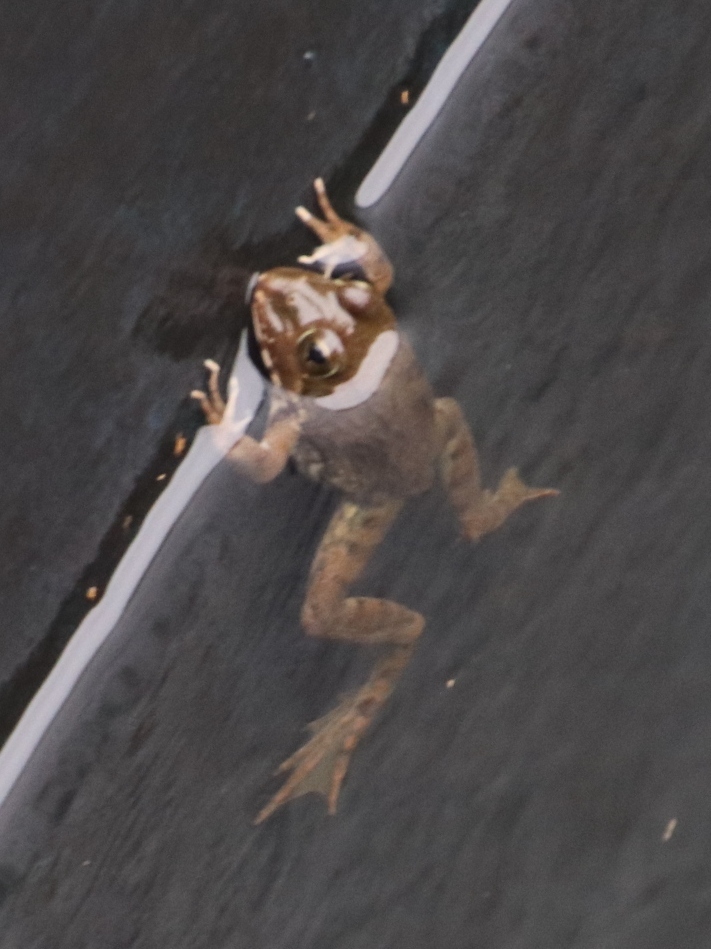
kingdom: Animalia
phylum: Chordata
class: Amphibia
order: Anura
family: Pyxicephalidae
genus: Amietia
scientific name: Amietia fuscigula
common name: Cape rana
